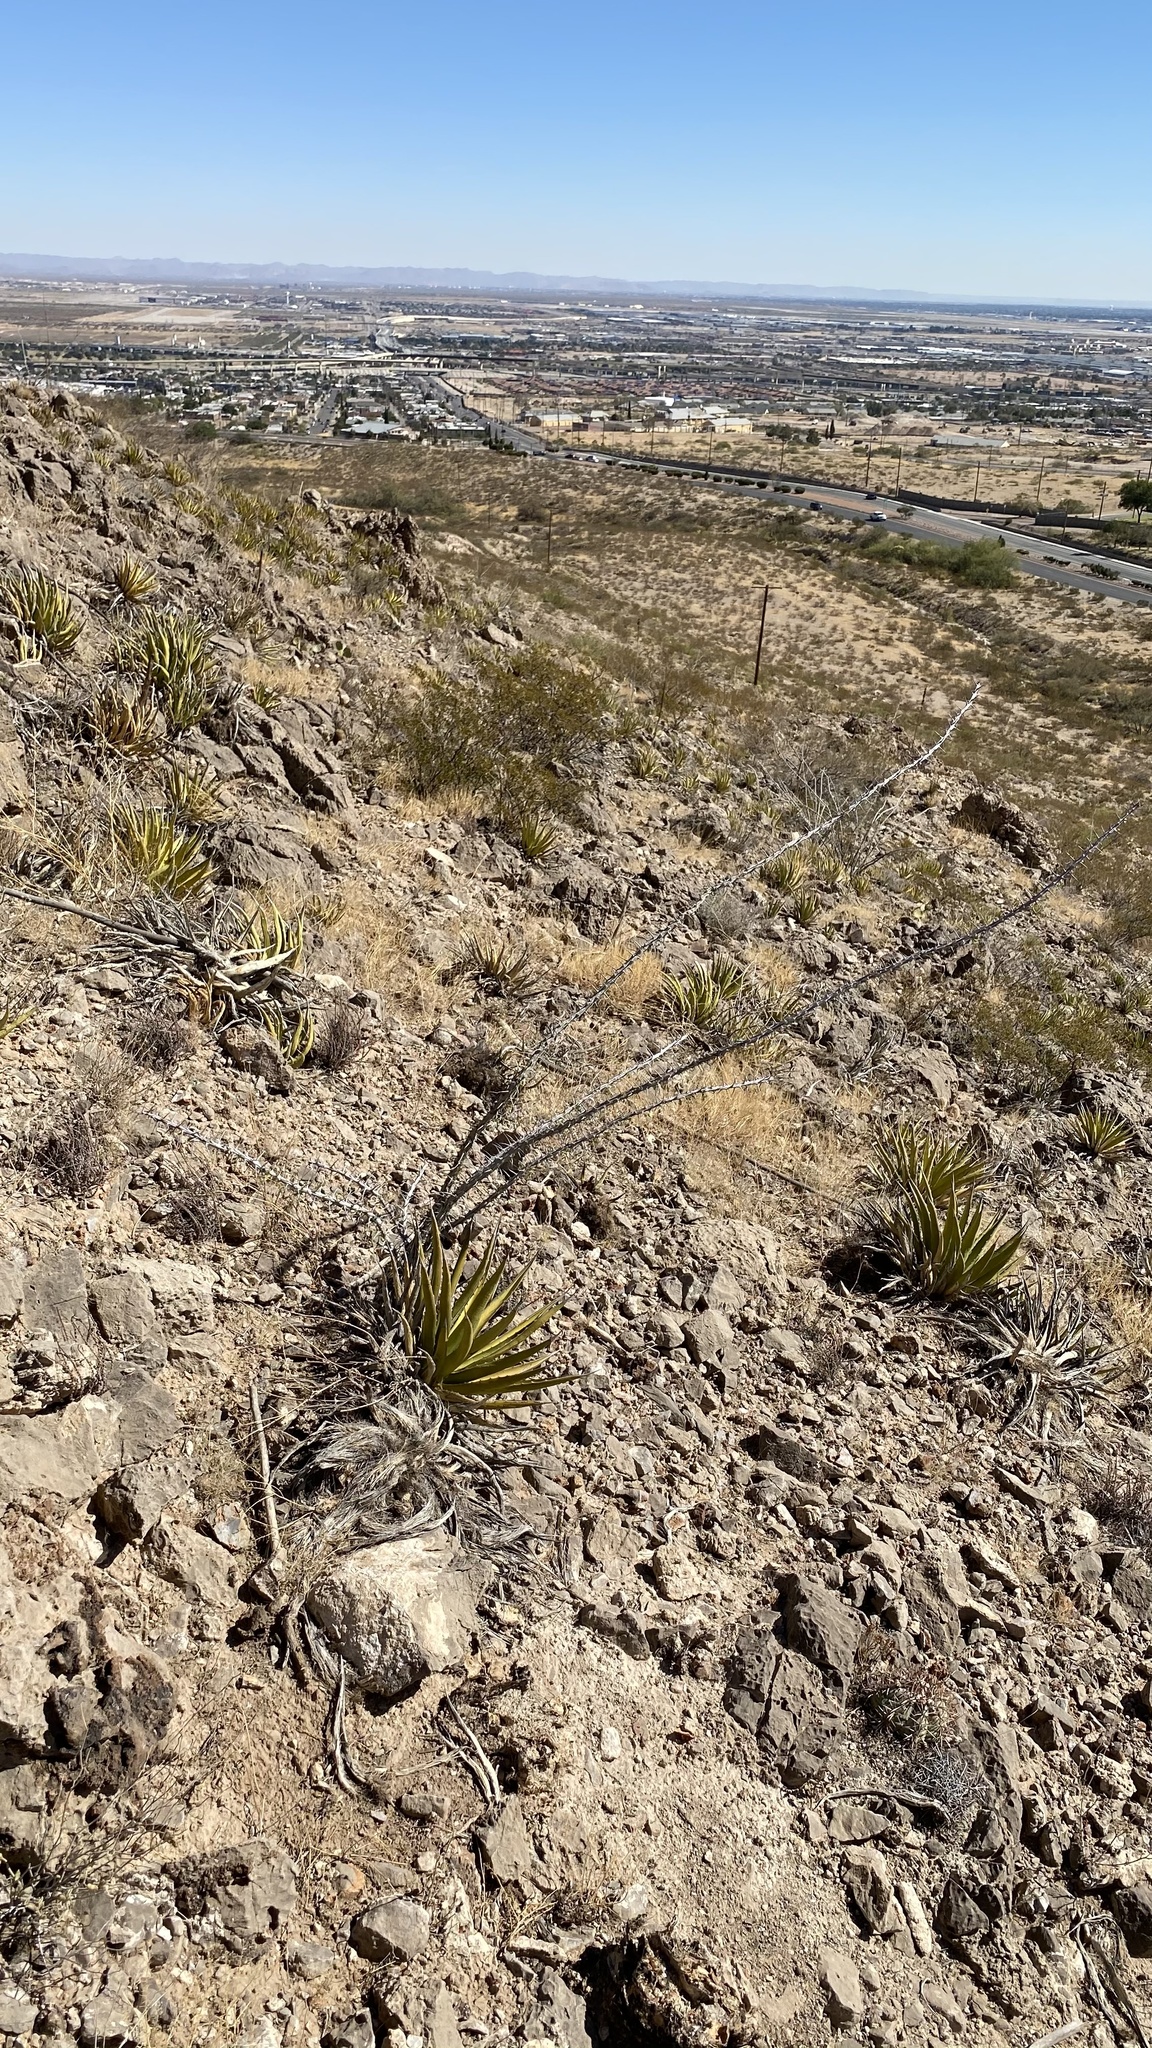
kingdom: Plantae
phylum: Tracheophyta
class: Magnoliopsida
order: Ericales
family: Fouquieriaceae
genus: Fouquieria
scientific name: Fouquieria splendens
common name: Vine-cactus
